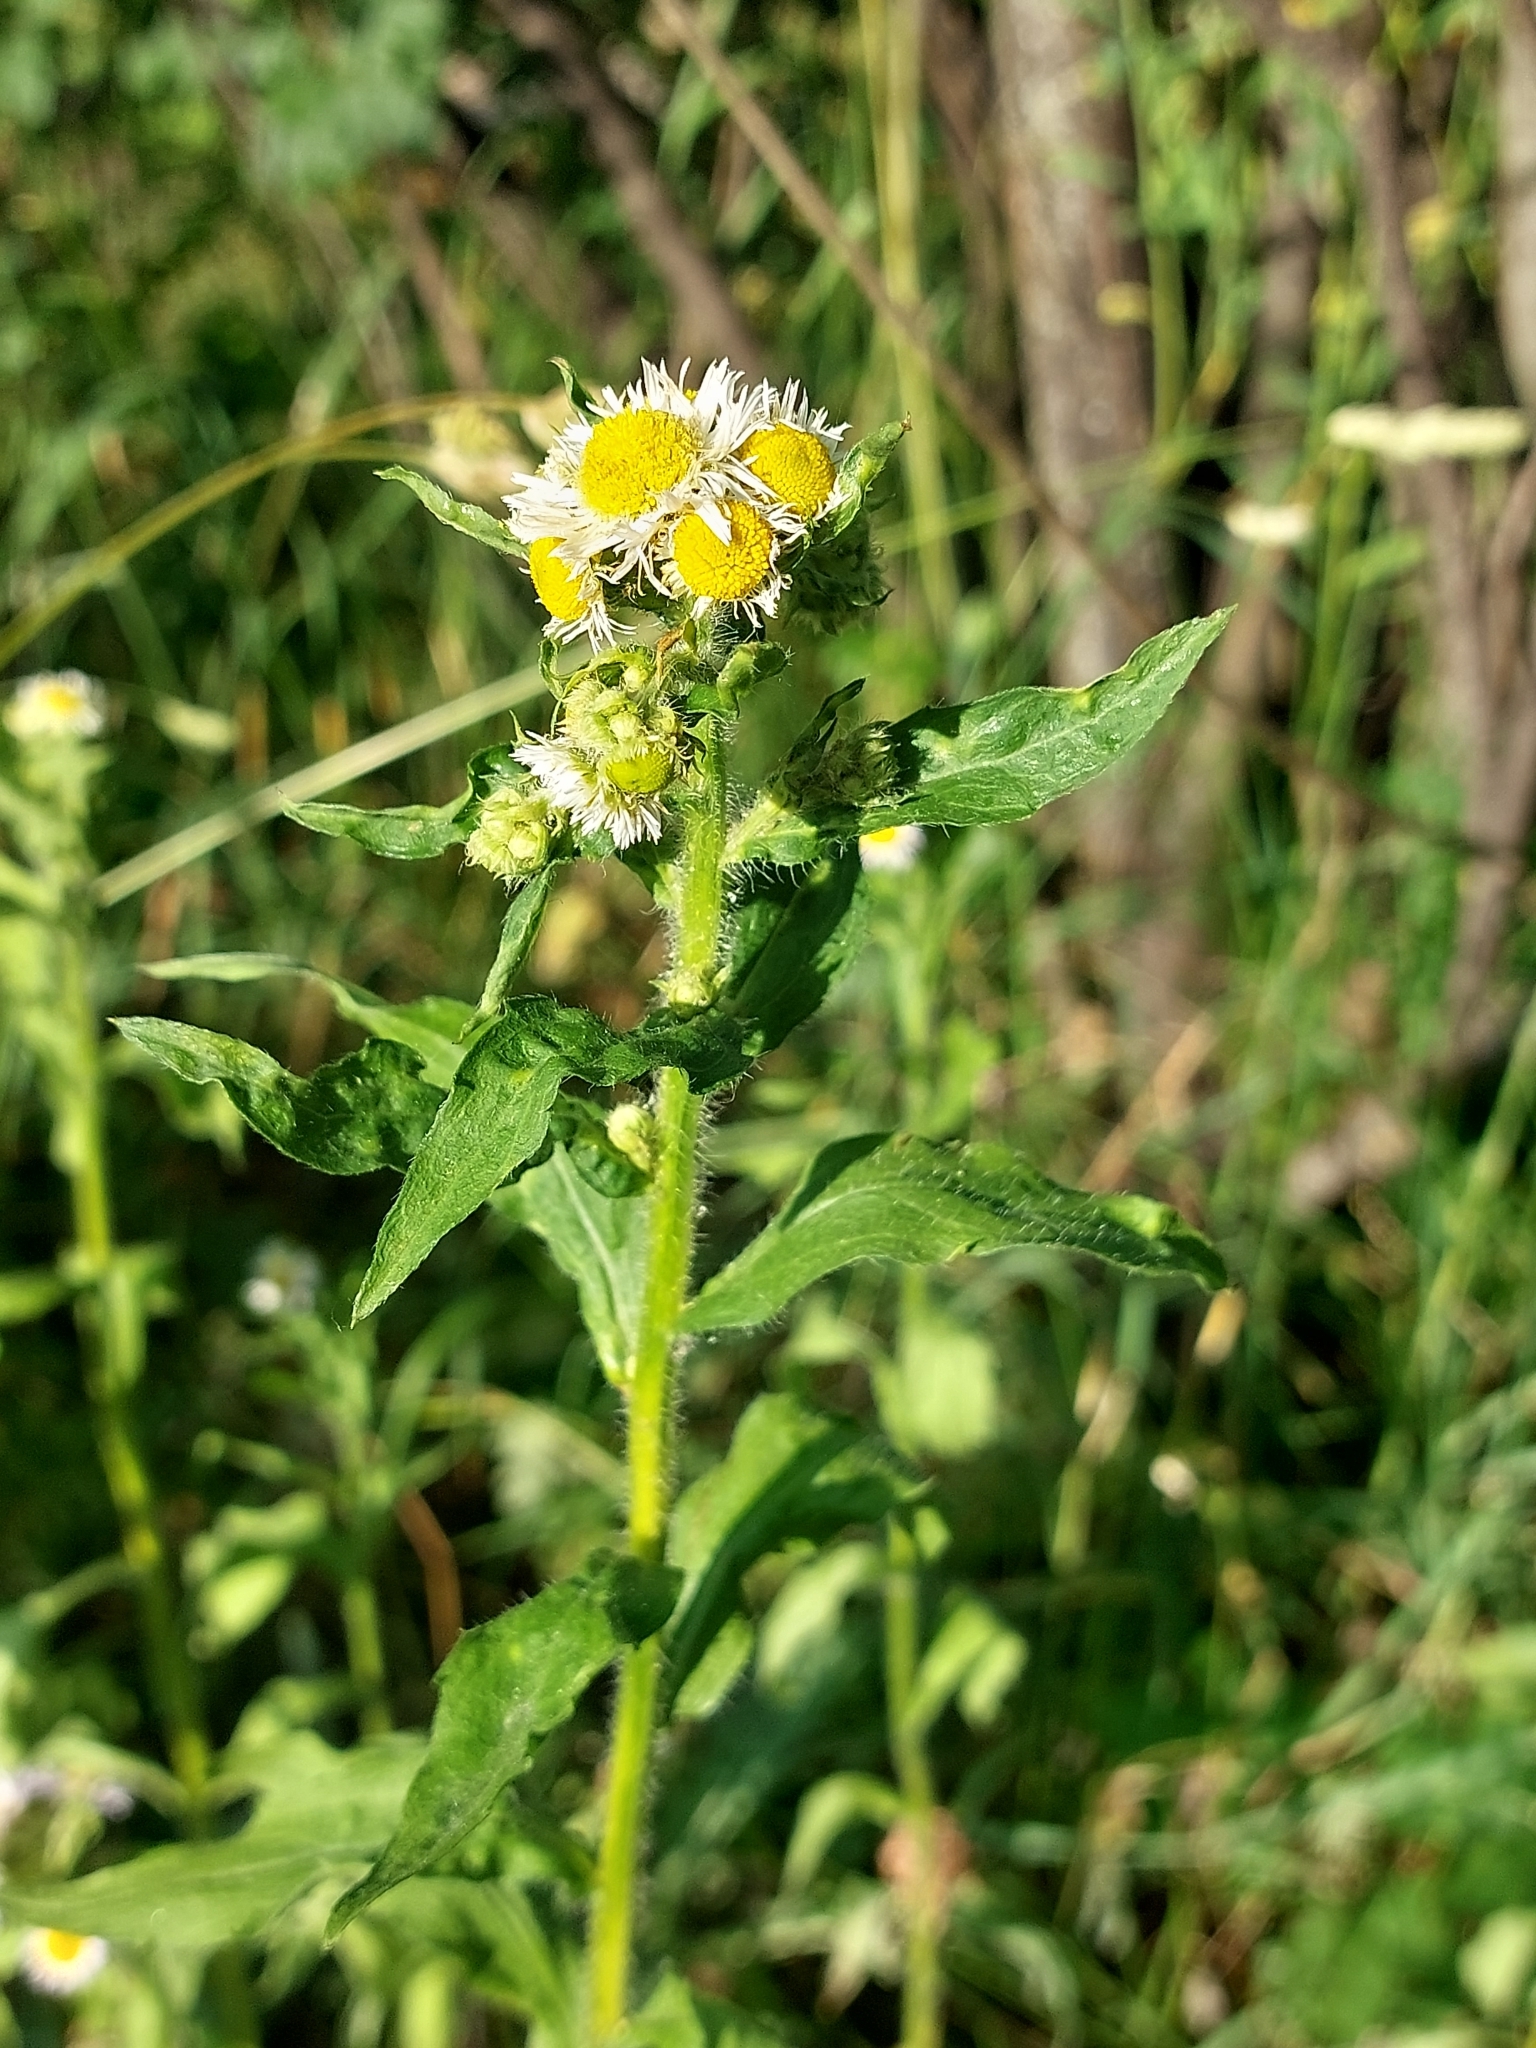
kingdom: Plantae
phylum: Tracheophyta
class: Magnoliopsida
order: Asterales
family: Asteraceae
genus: Erigeron
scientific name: Erigeron annuus
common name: Tall fleabane
